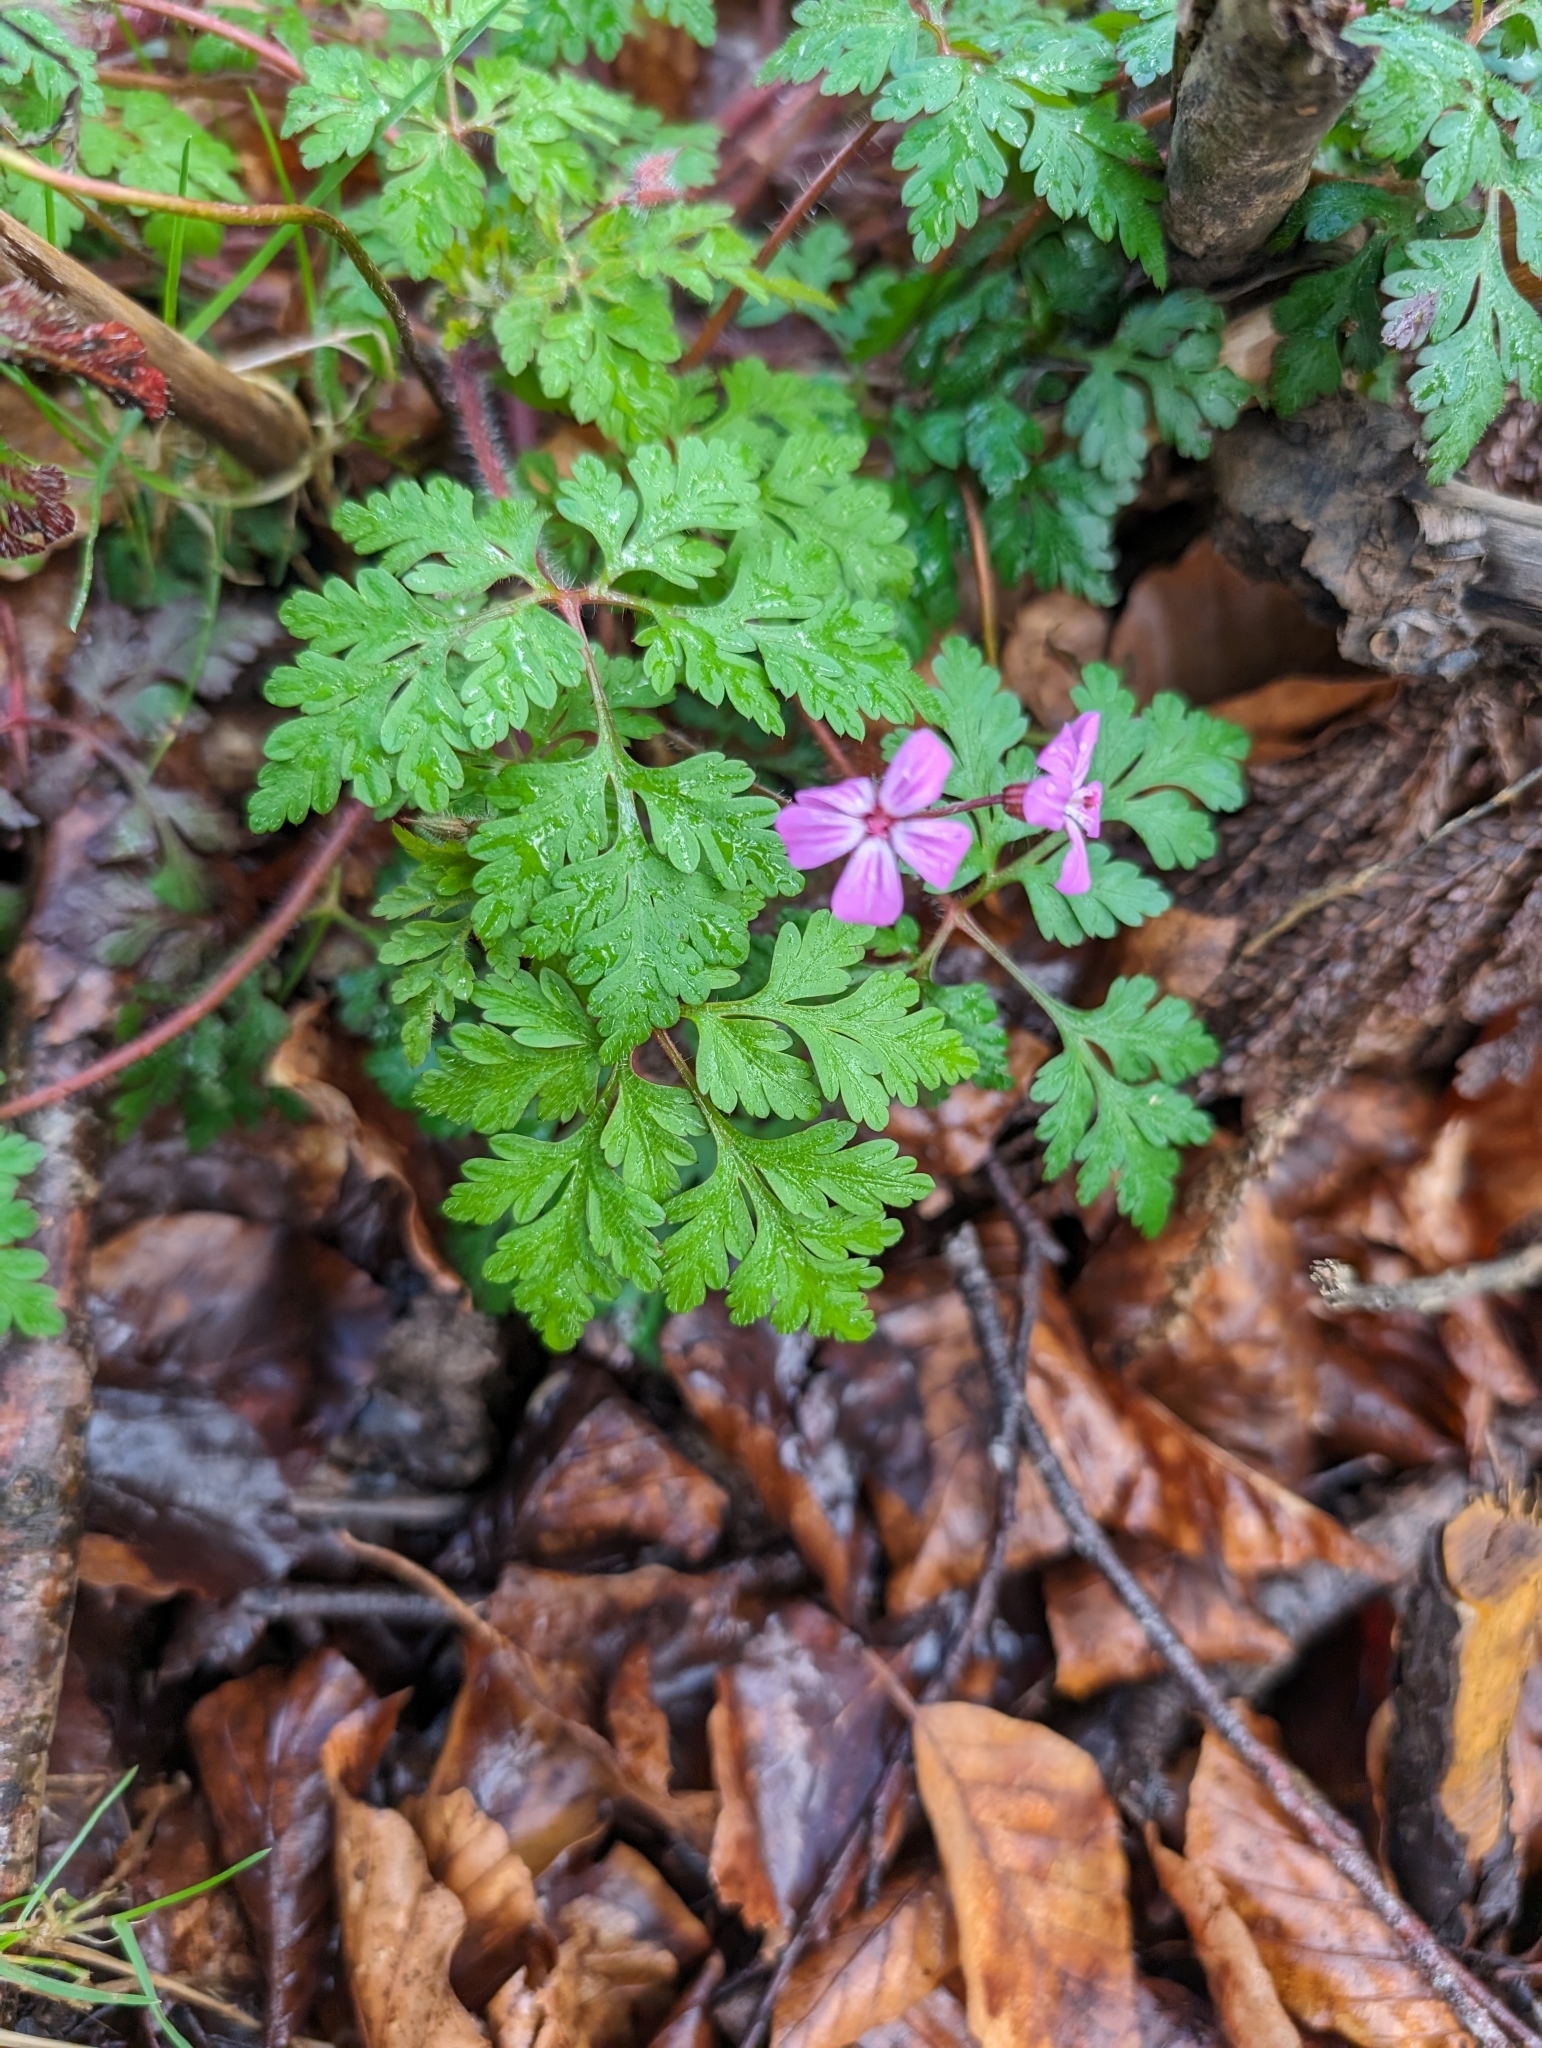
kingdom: Plantae
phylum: Tracheophyta
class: Magnoliopsida
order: Geraniales
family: Geraniaceae
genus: Geranium
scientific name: Geranium robertianum
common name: Herb-robert
